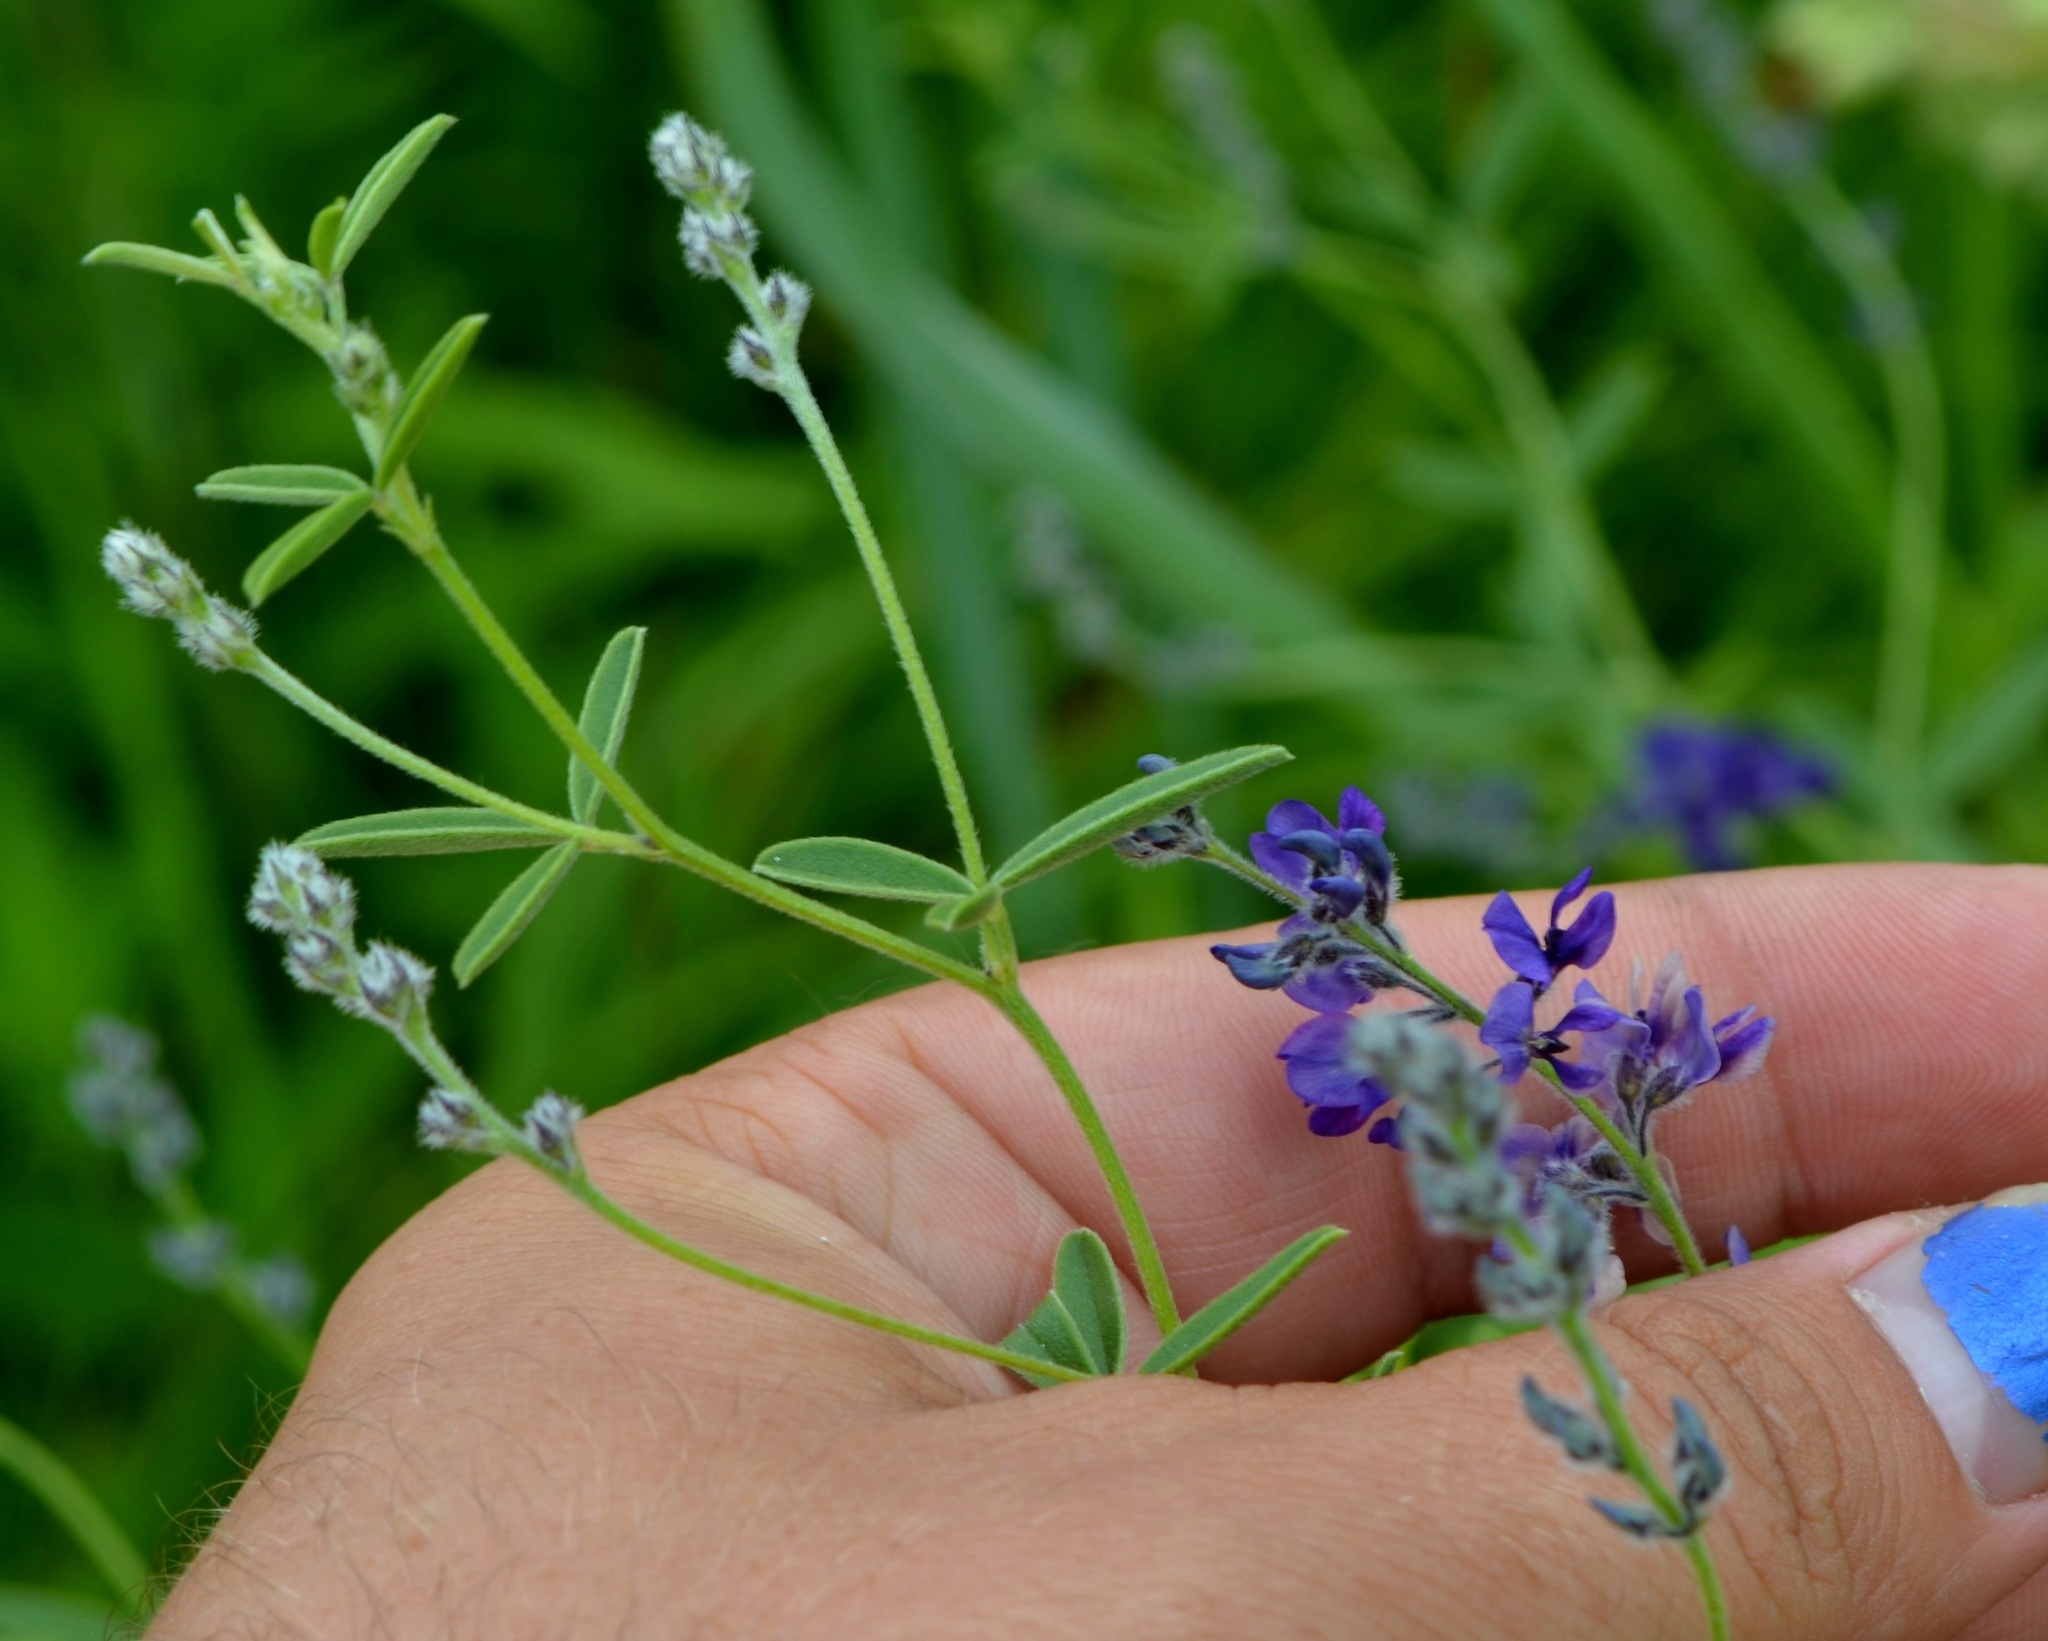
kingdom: Plantae
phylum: Tracheophyta
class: Magnoliopsida
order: Fabales
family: Fabaceae
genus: Pediomelum
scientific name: Pediomelum tenuiflorum
